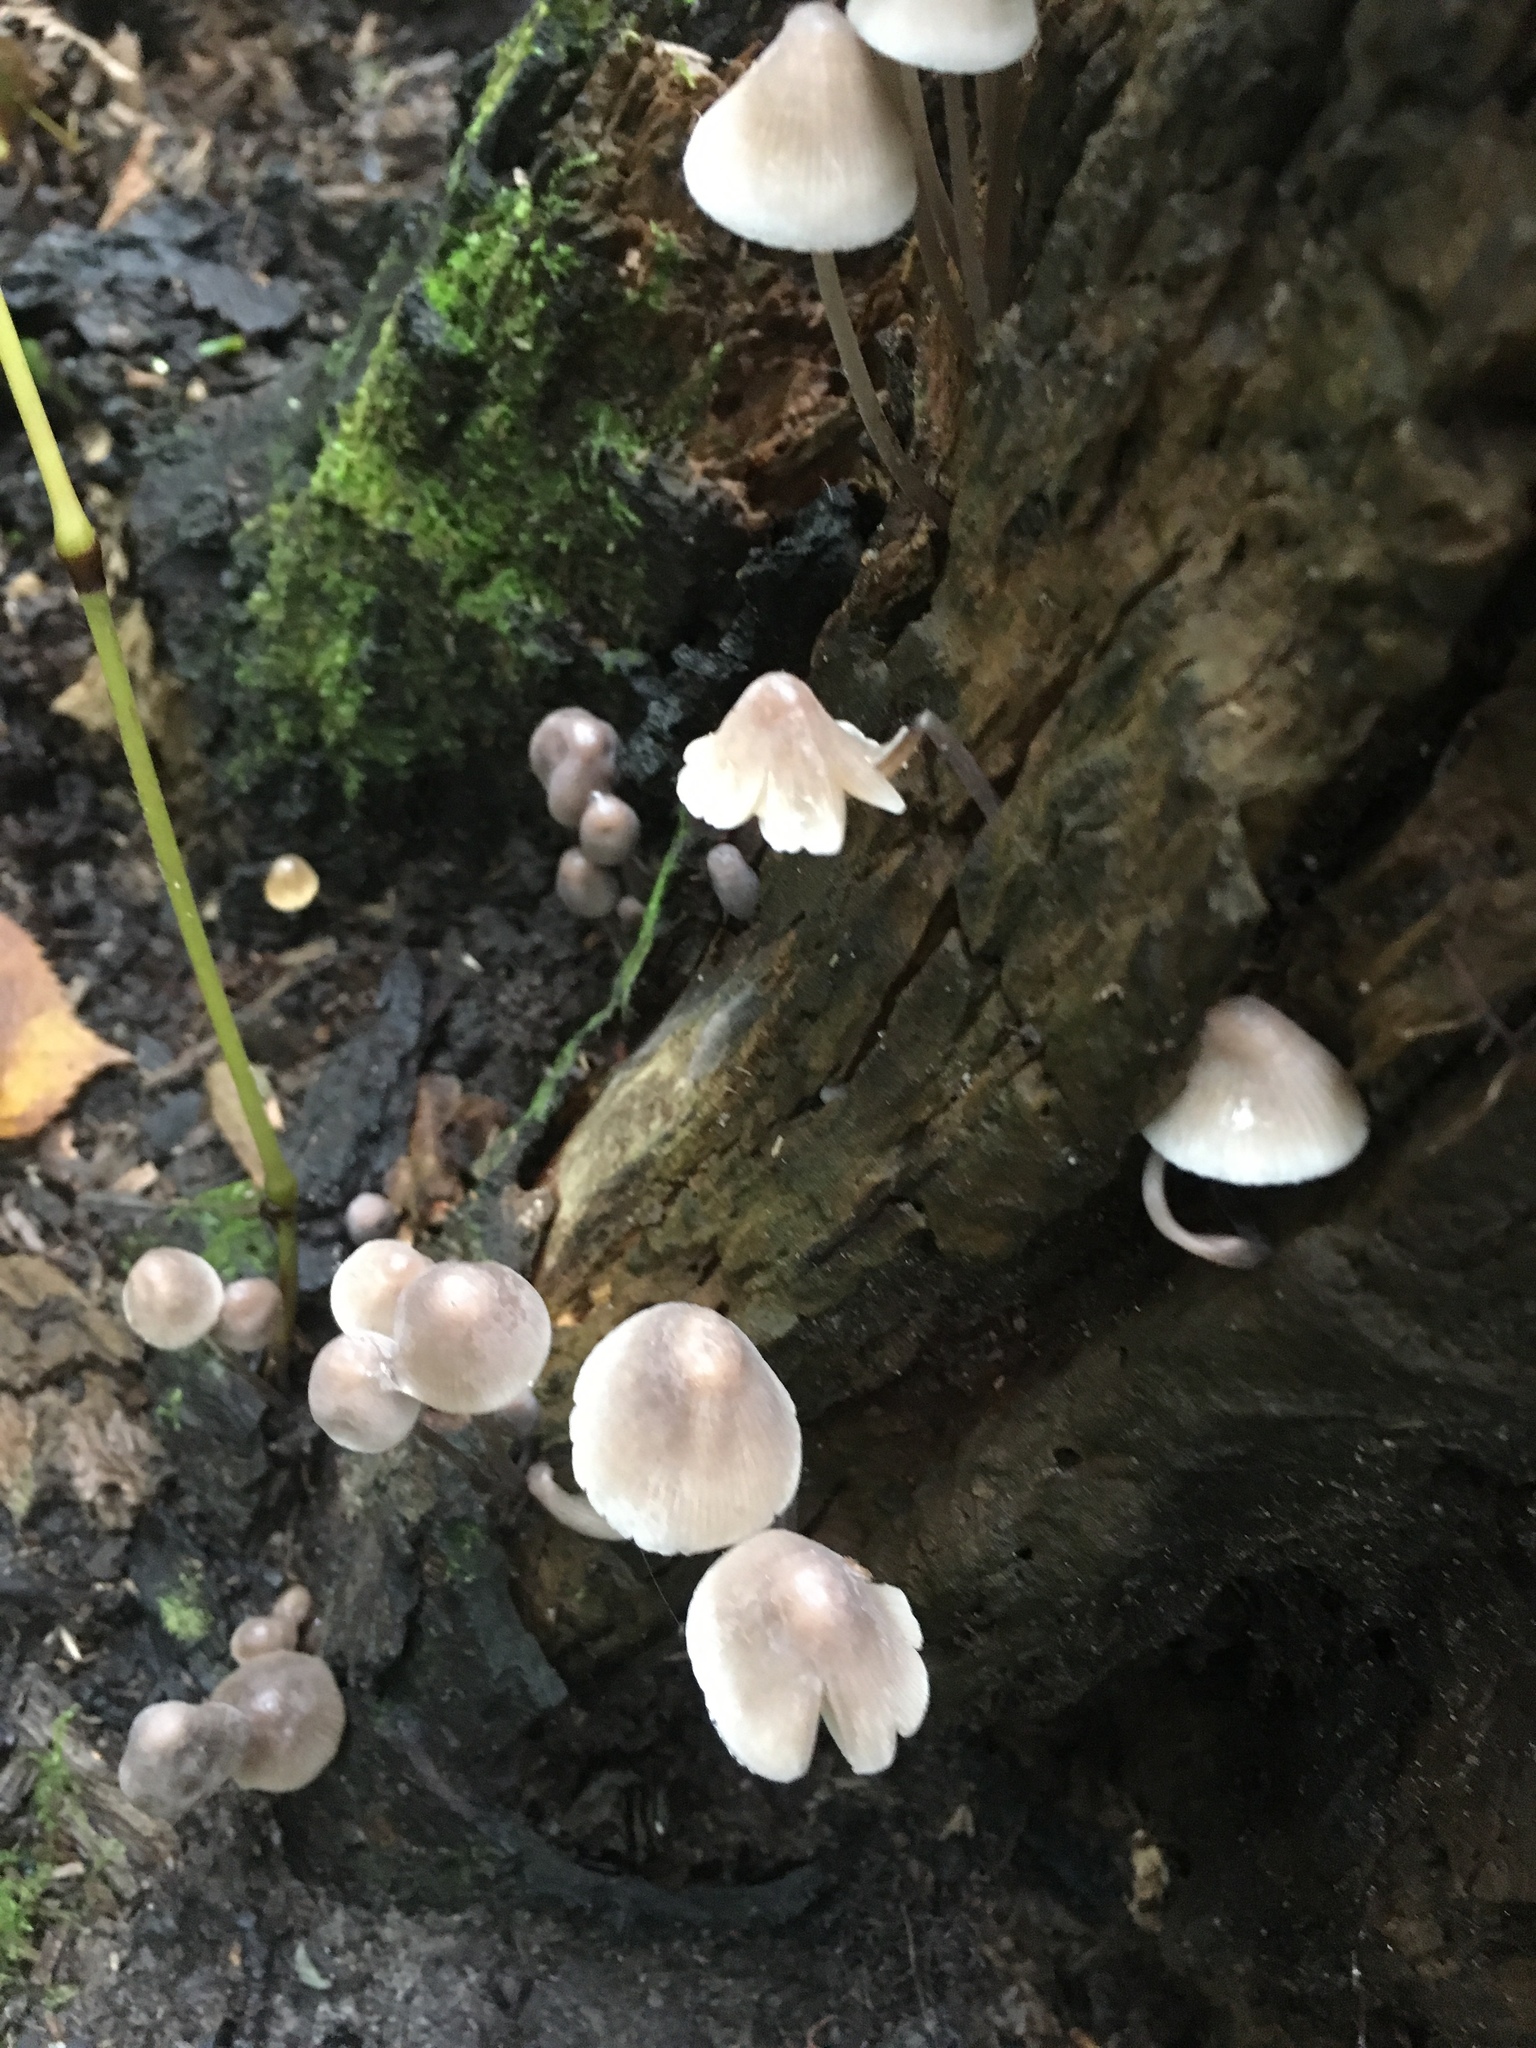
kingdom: Fungi
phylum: Basidiomycota
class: Agaricomycetes
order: Agaricales
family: Mycenaceae
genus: Mycena
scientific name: Mycena inclinata
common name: Clustered bonnet
